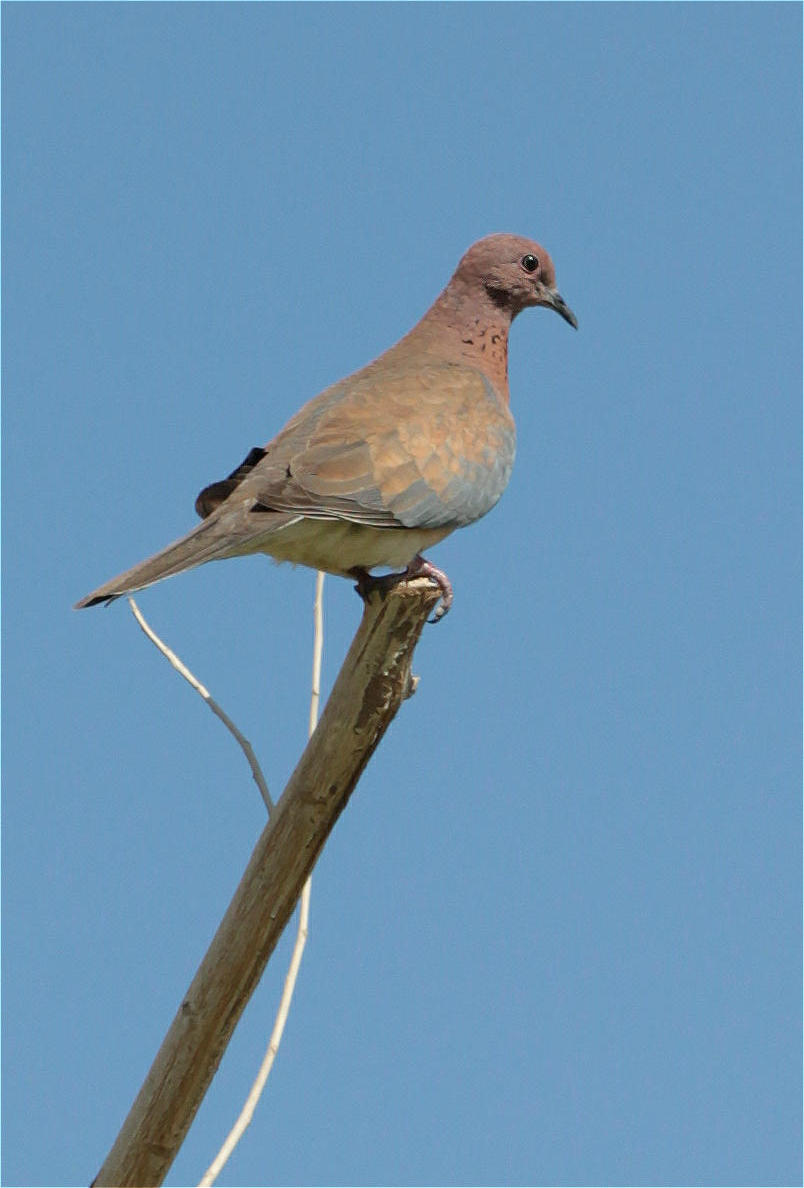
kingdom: Animalia
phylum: Chordata
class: Aves
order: Columbiformes
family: Columbidae
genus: Spilopelia
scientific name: Spilopelia senegalensis
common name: Laughing dove
